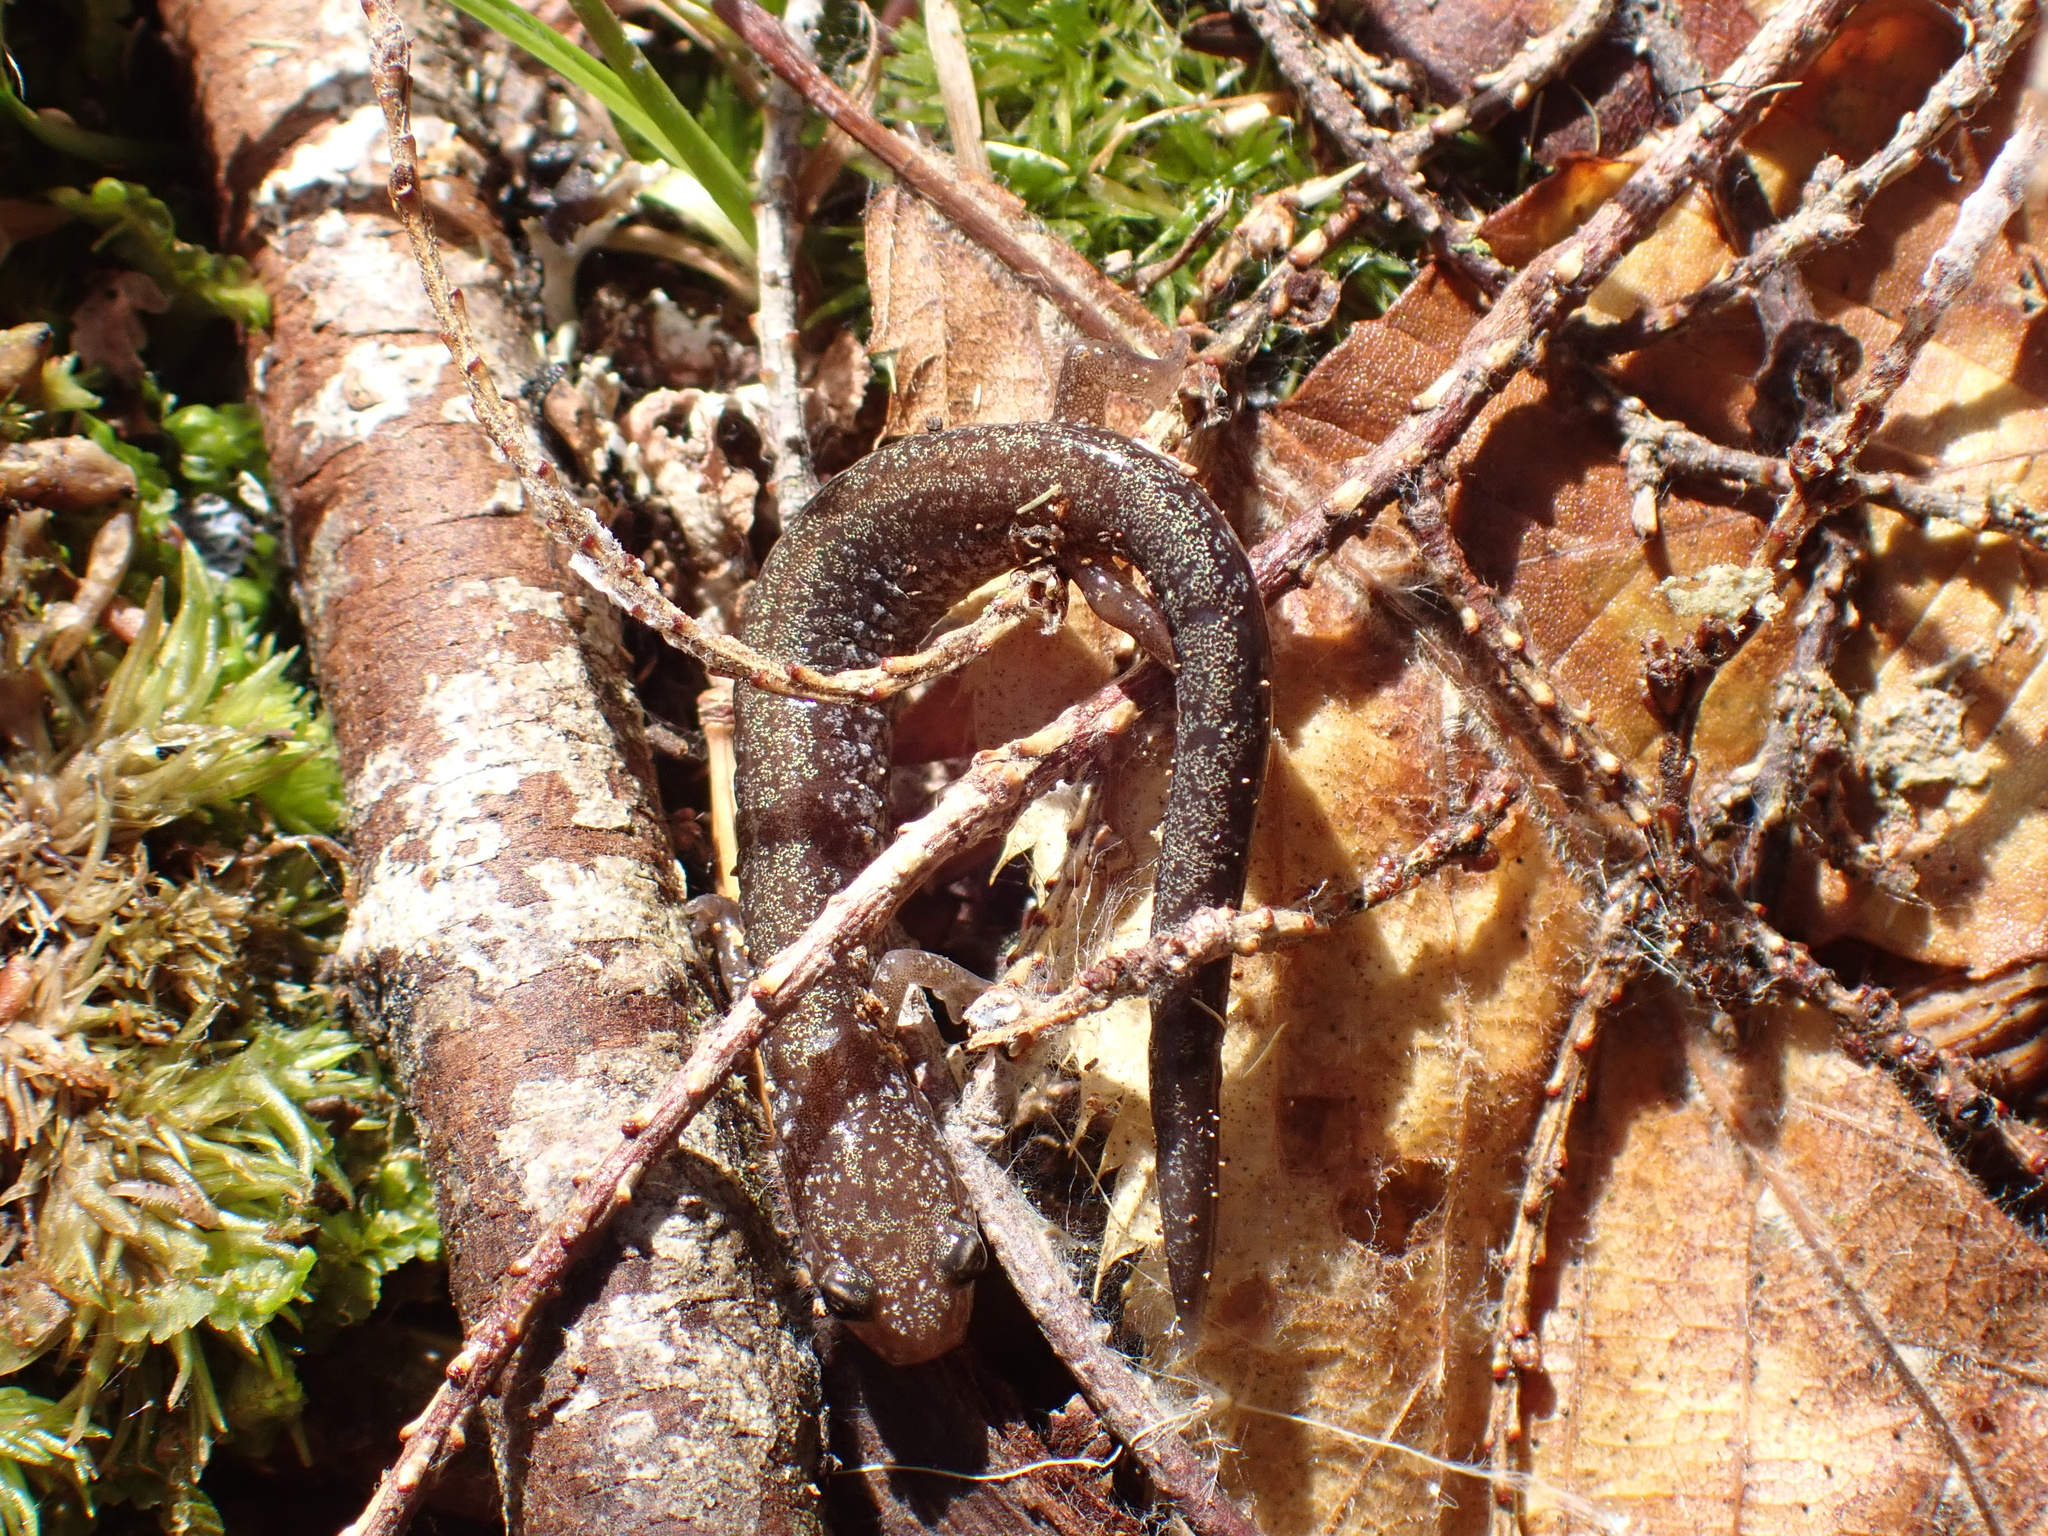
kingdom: Animalia
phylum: Chordata
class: Amphibia
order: Caudata
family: Plethodontidae
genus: Plethodon
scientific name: Plethodon cinereus
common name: Redback salamander
